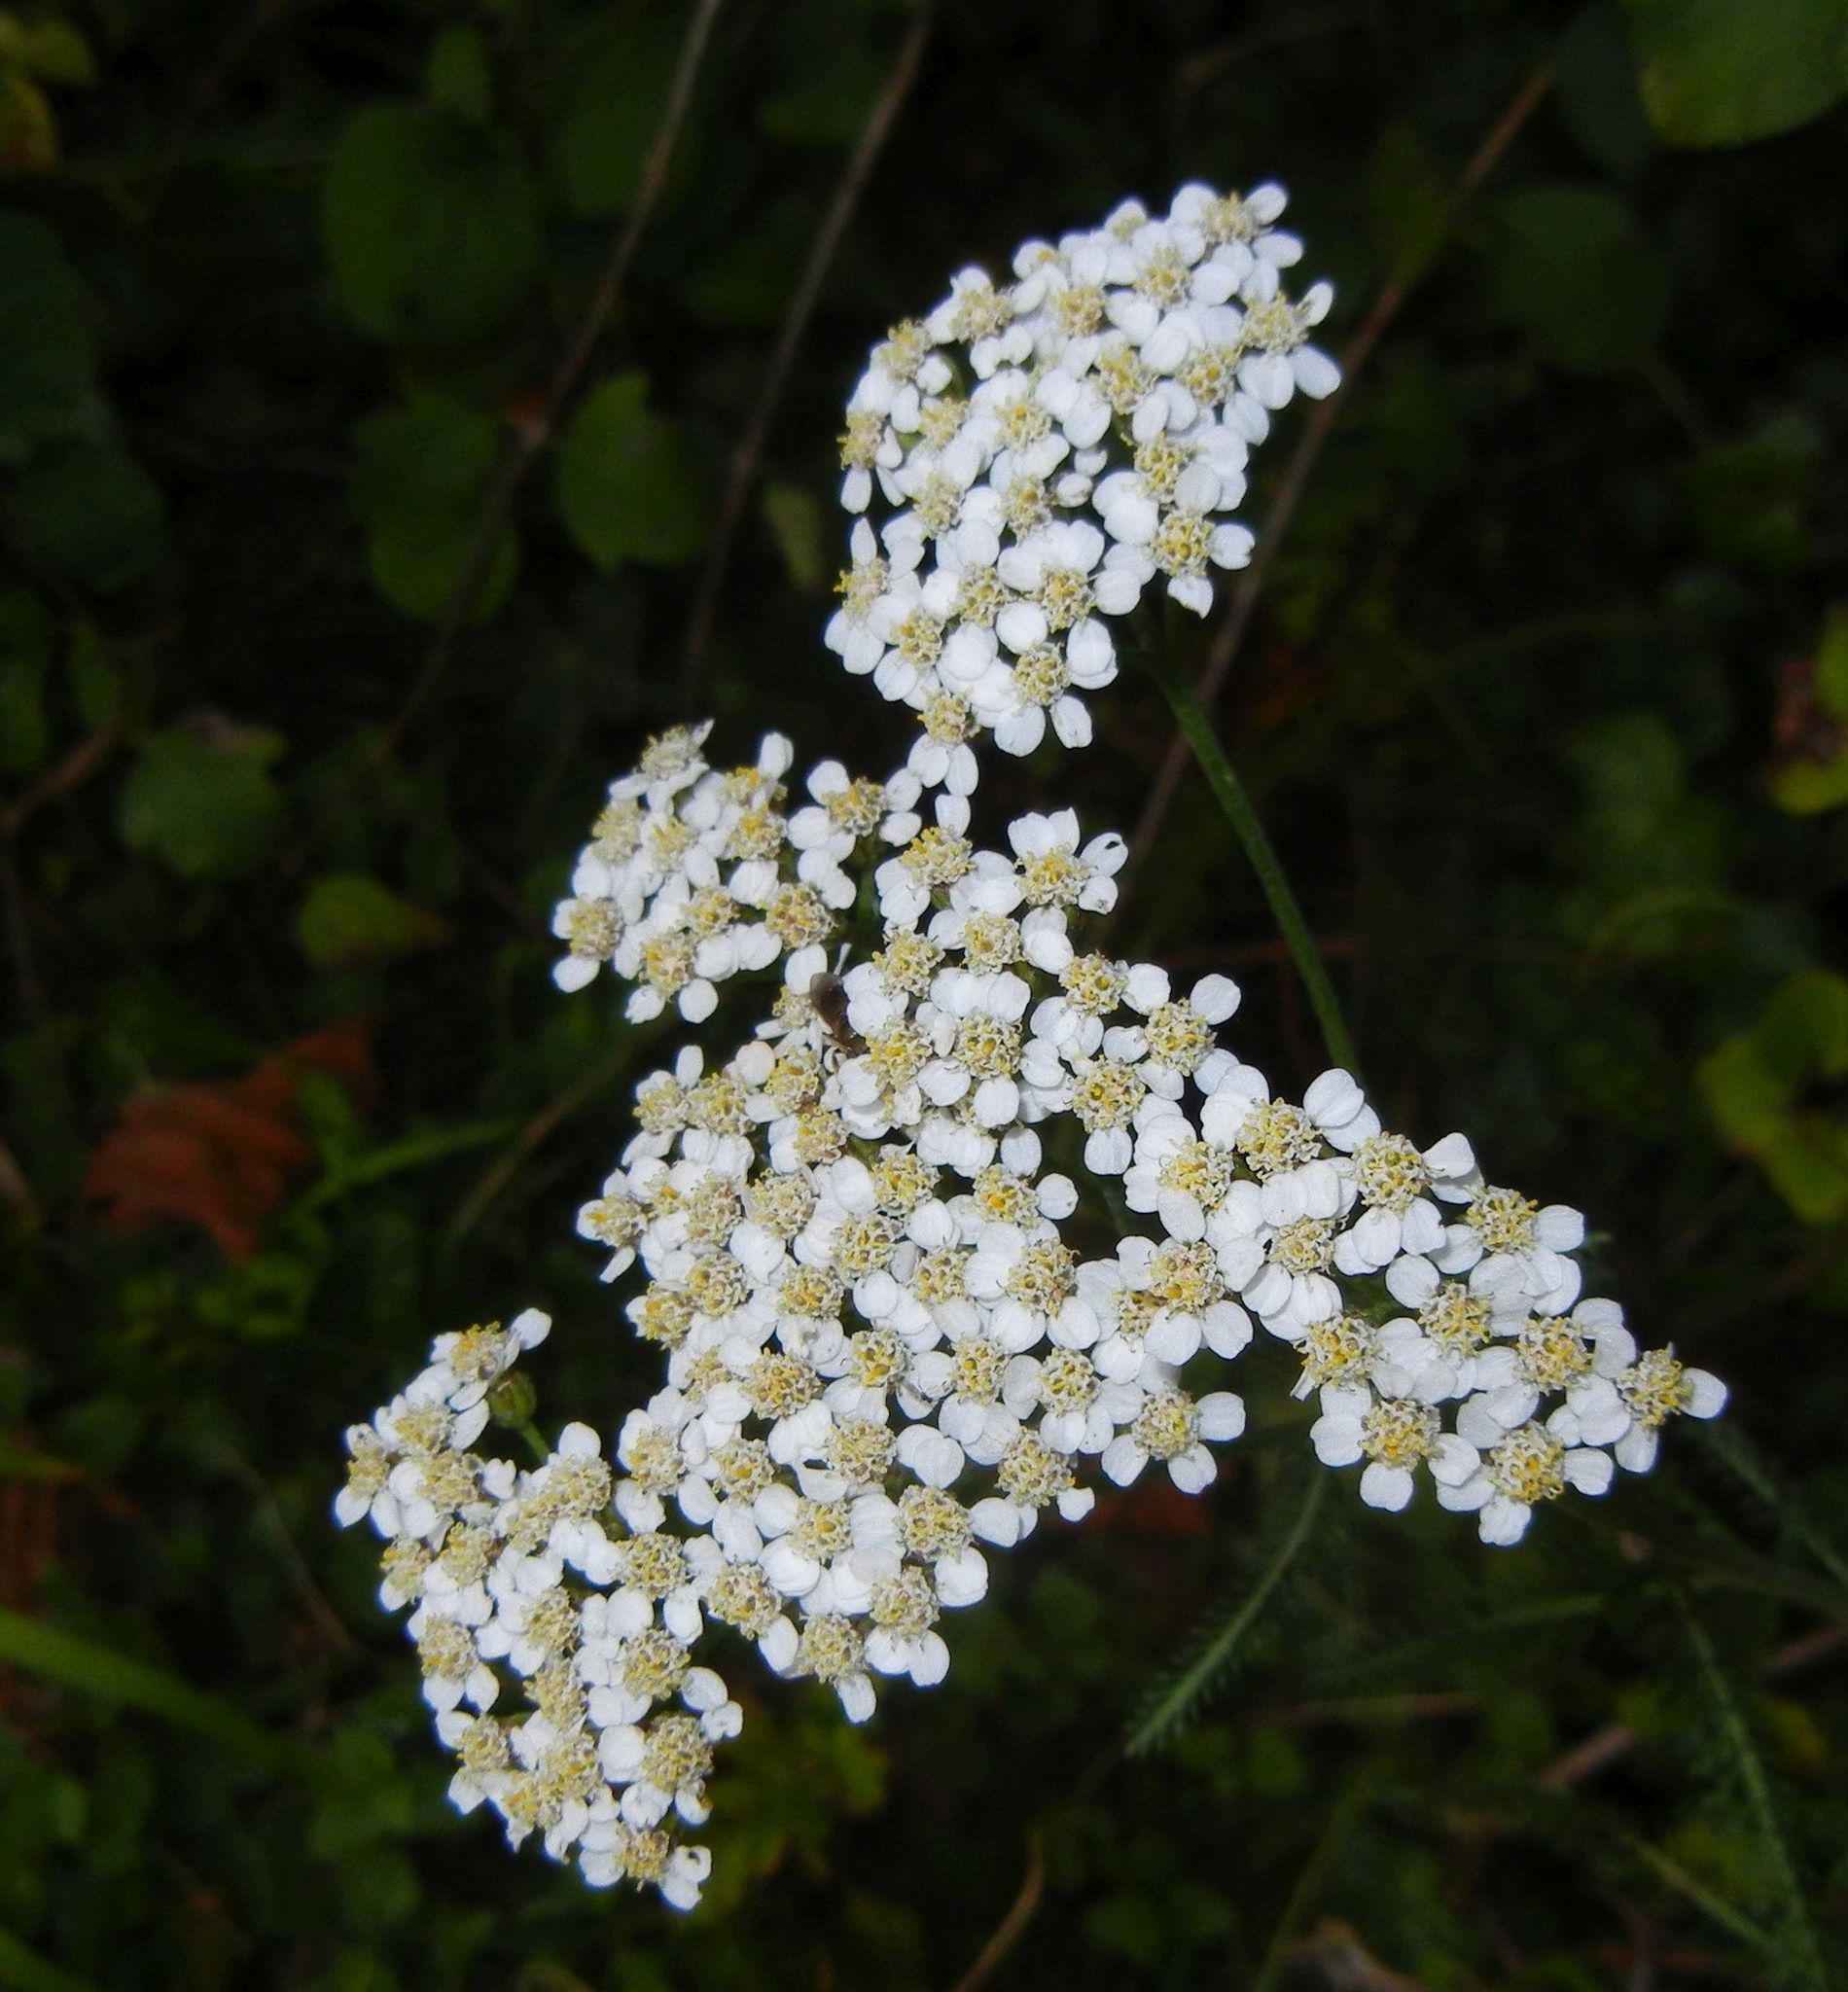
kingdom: Plantae
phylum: Tracheophyta
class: Magnoliopsida
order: Asterales
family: Asteraceae
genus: Achillea
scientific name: Achillea millefolium
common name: Yarrow
